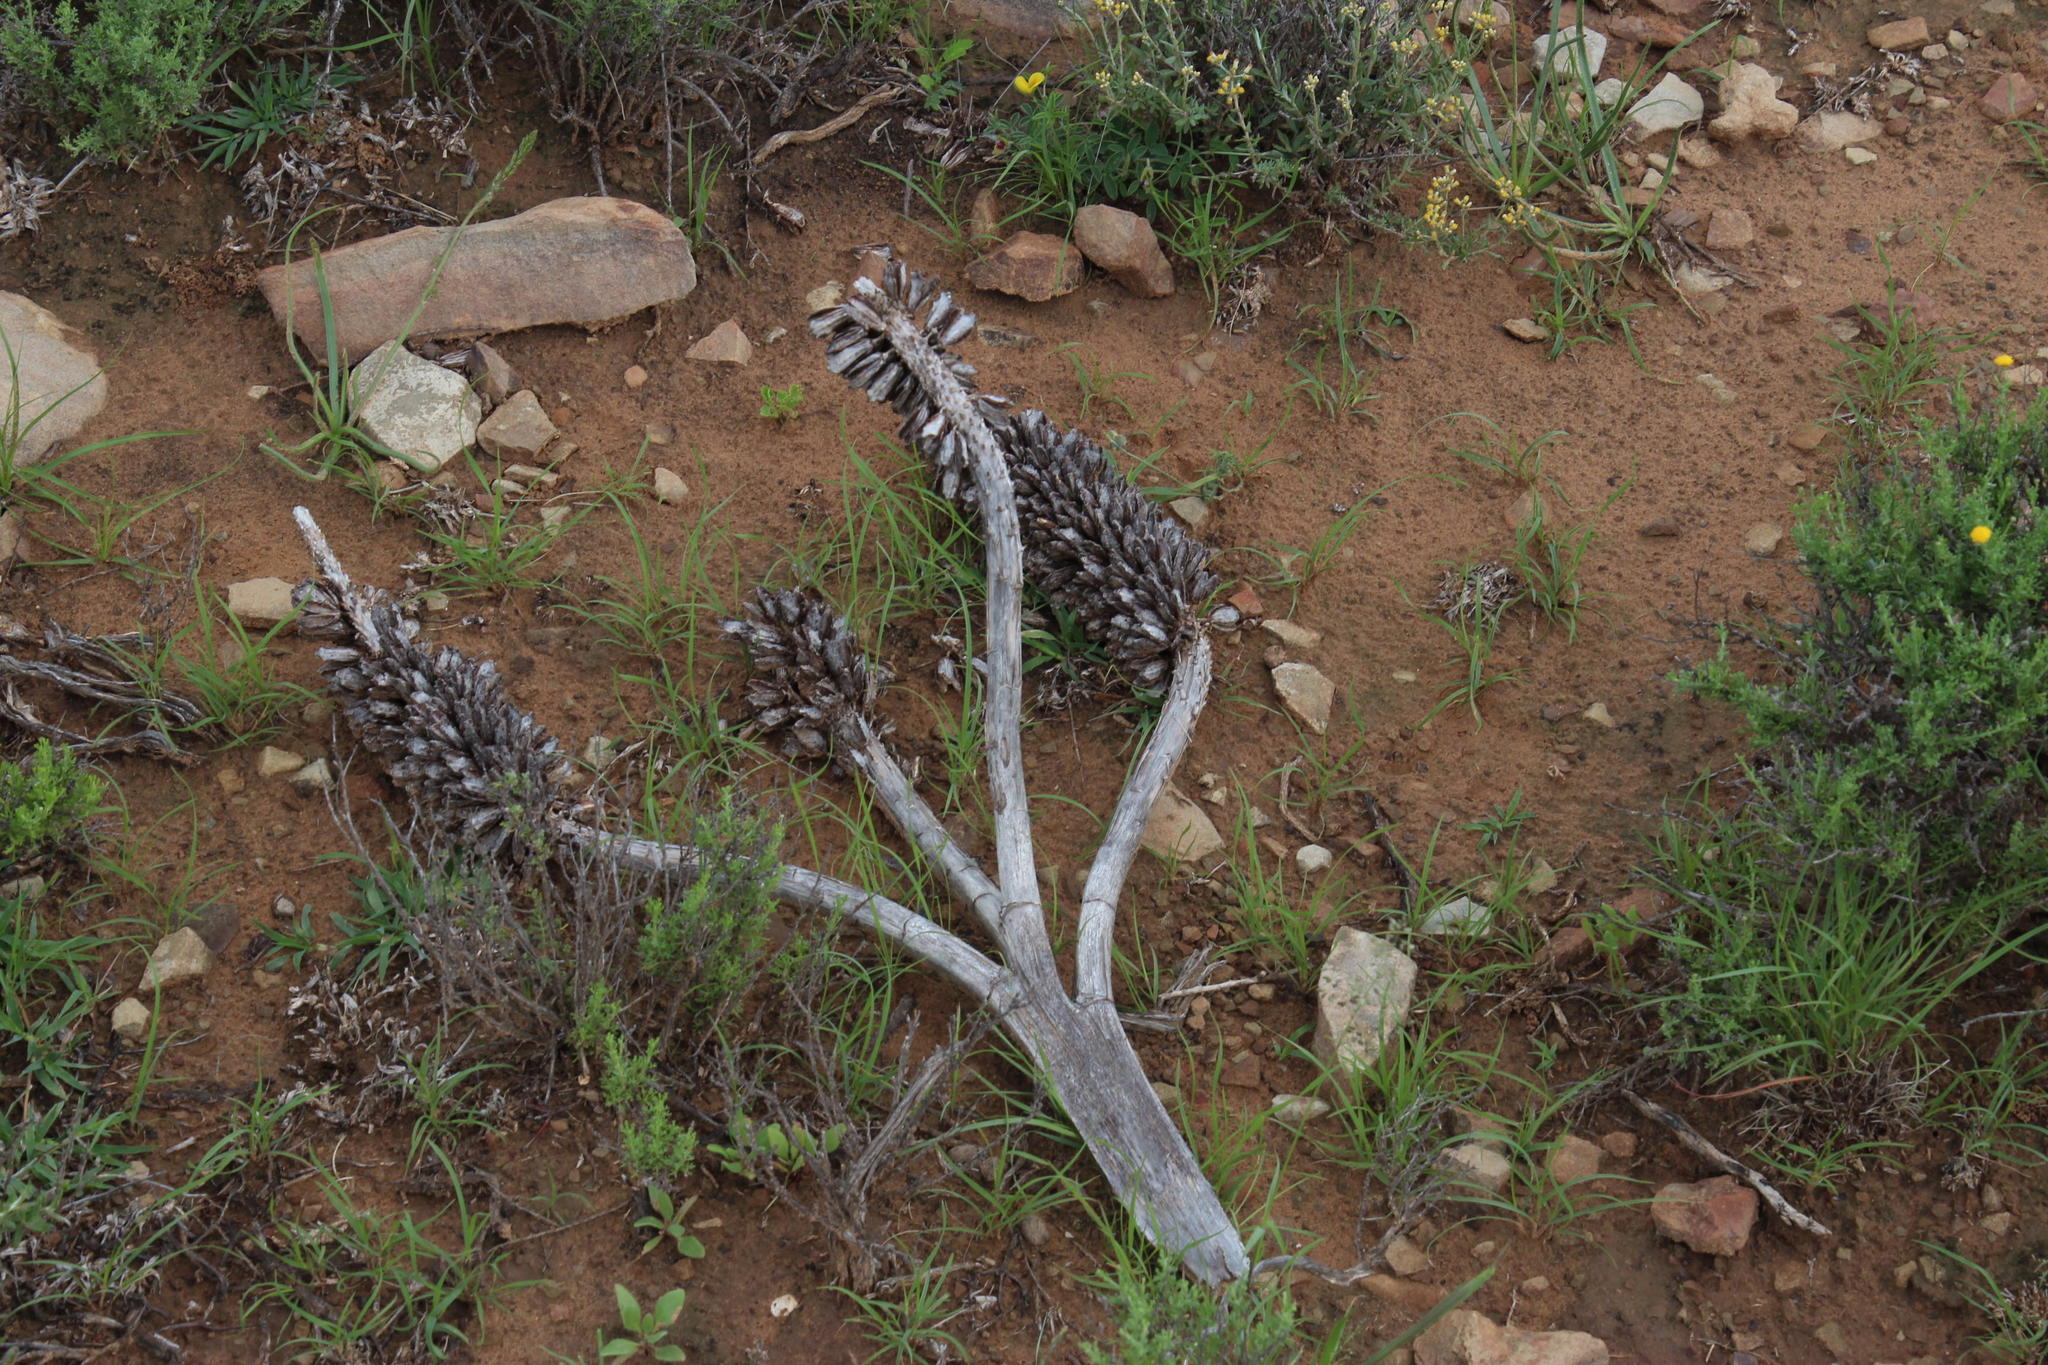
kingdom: Plantae
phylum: Tracheophyta
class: Liliopsida
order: Asparagales
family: Asphodelaceae
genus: Aloe
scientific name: Aloe ferox
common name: Bitter aloe
